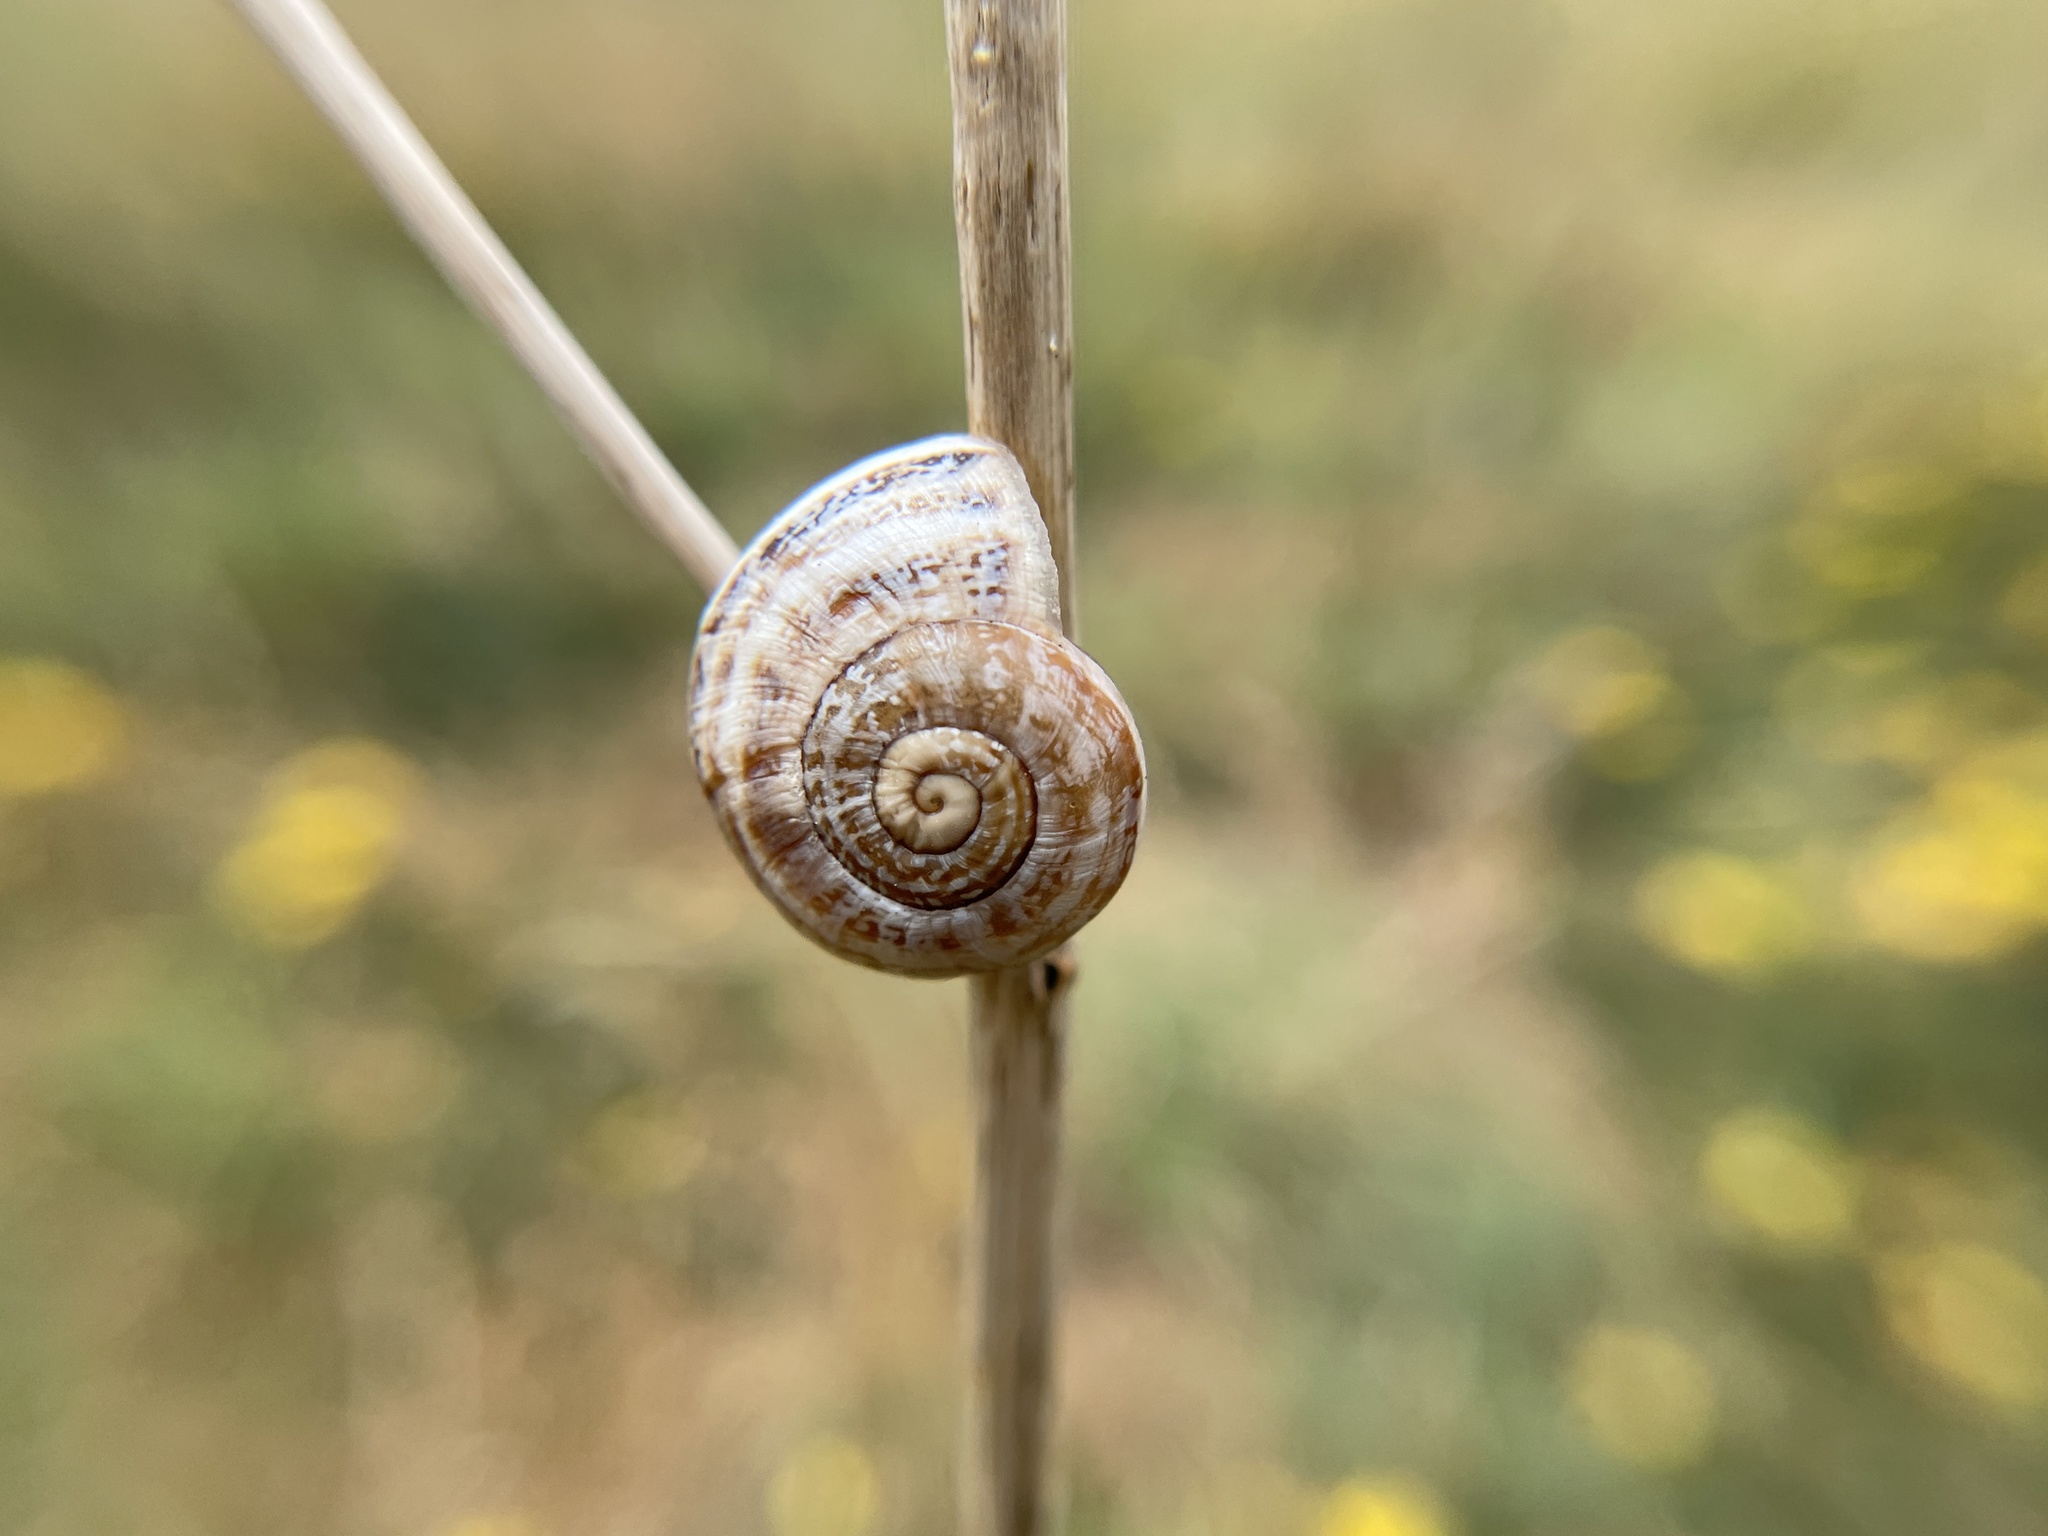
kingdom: Animalia
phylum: Mollusca
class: Gastropoda
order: Stylommatophora
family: Helicidae
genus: Otala
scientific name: Otala lactea
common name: Milk snail
